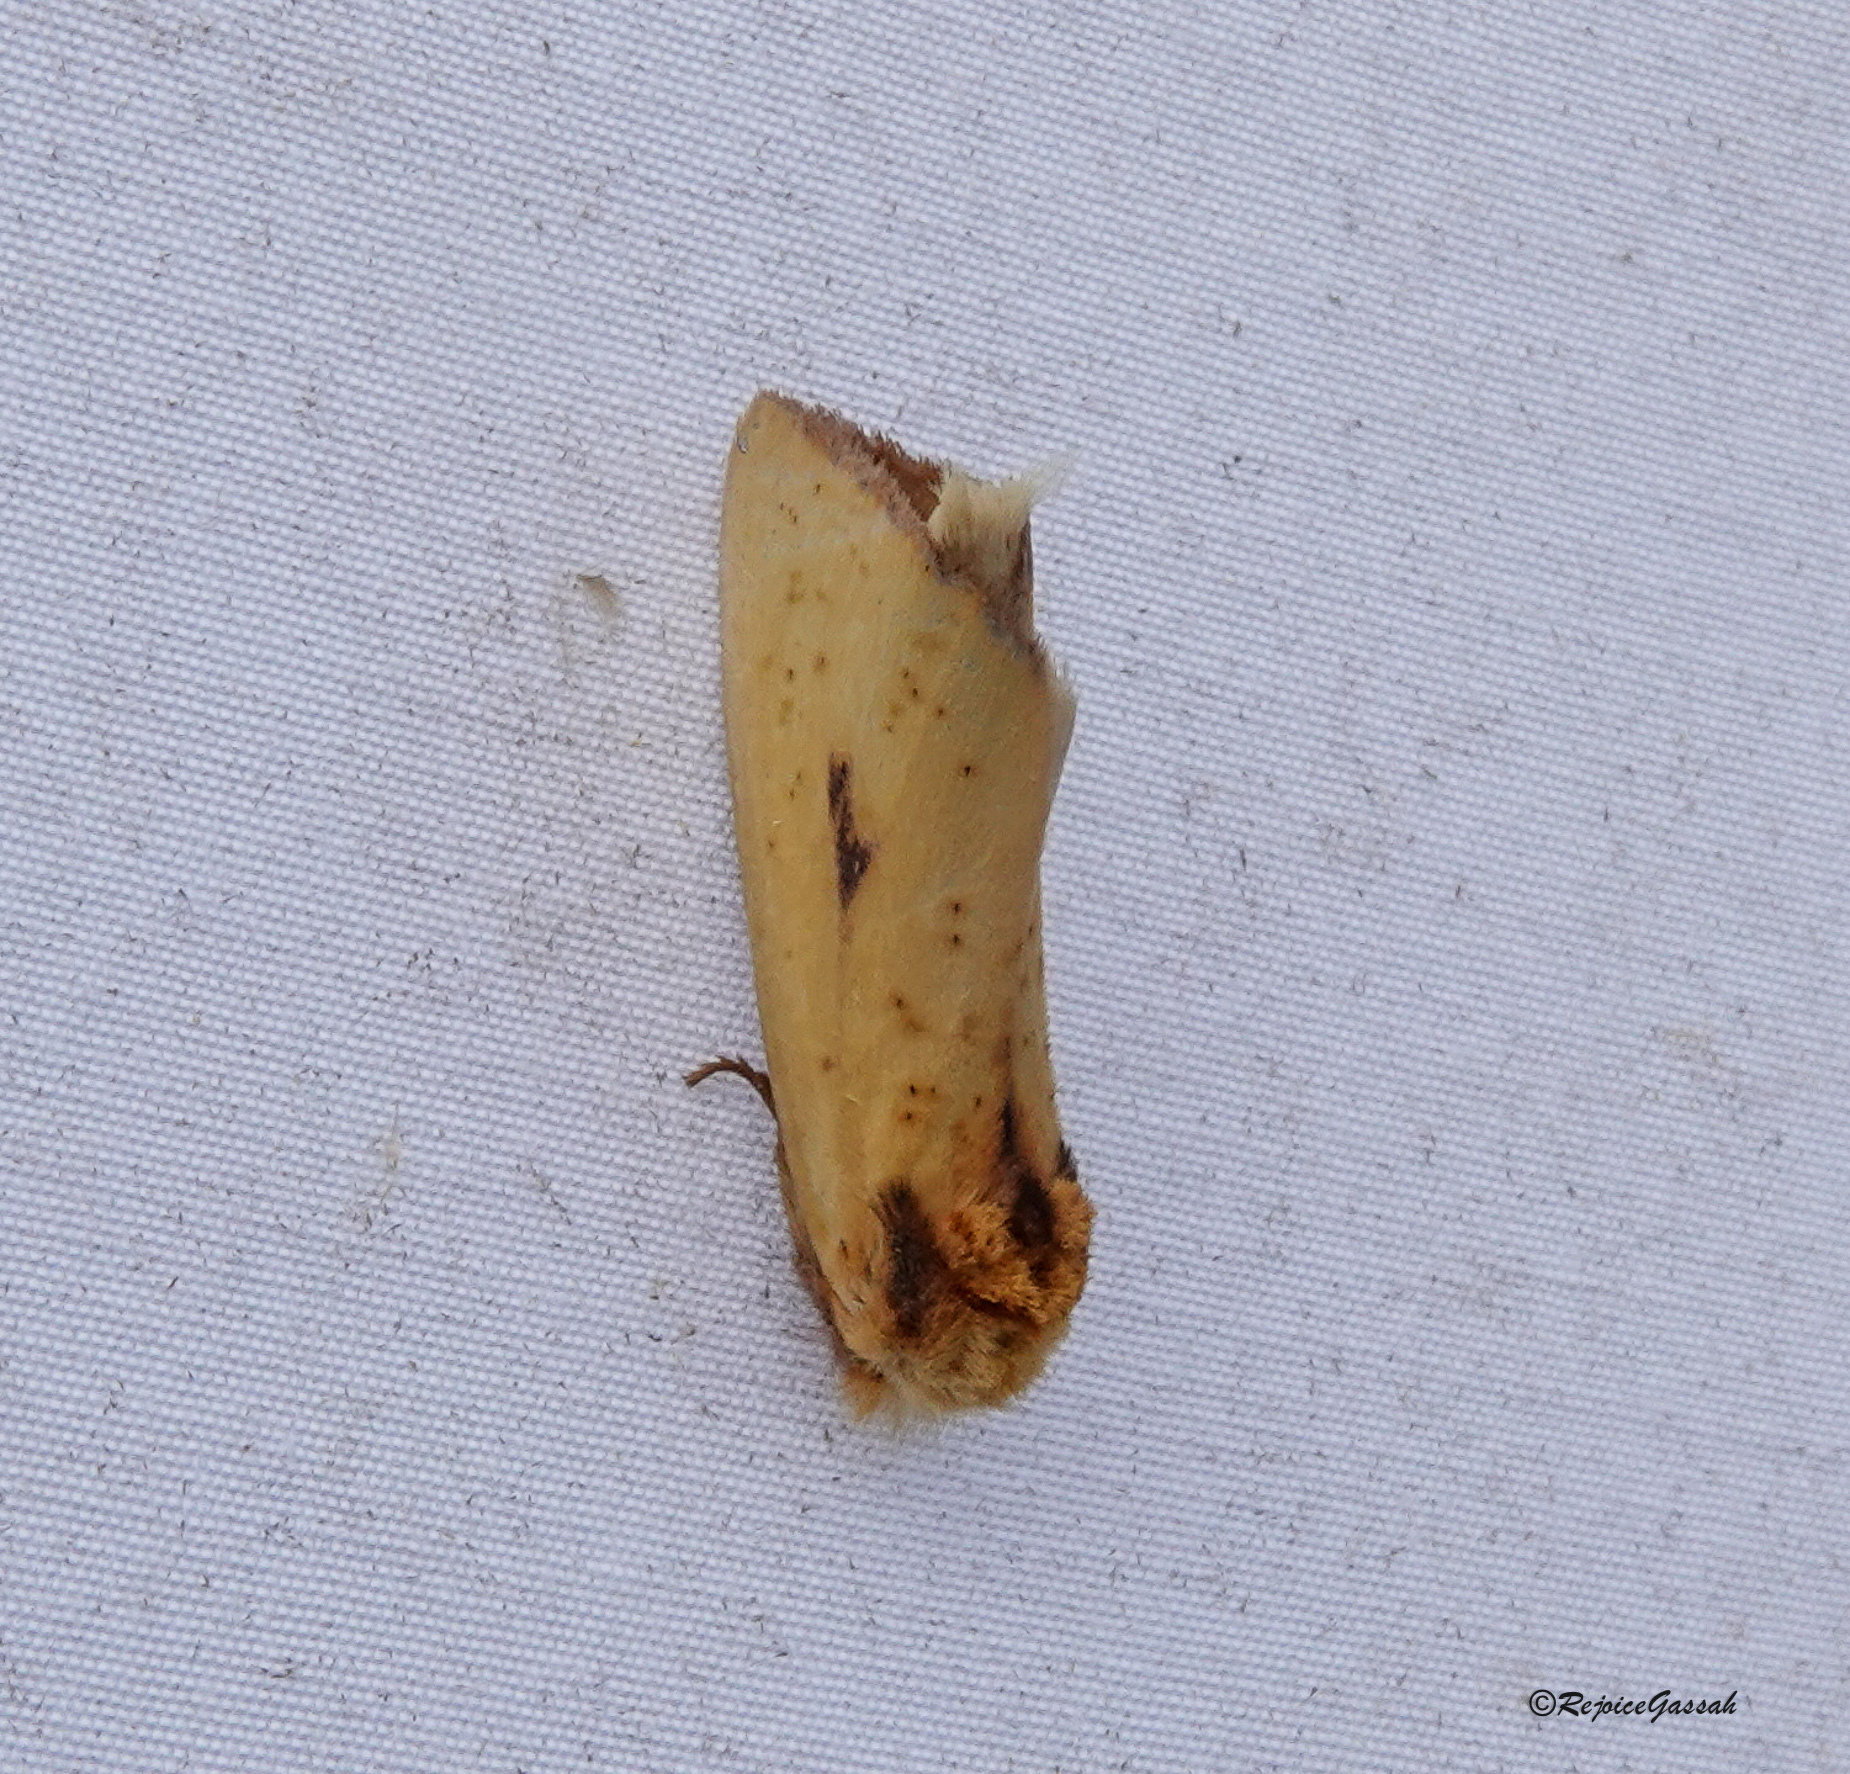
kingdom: Animalia
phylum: Arthropoda
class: Insecta
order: Lepidoptera
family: Notodontidae
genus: Antheua
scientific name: Antheua servula
